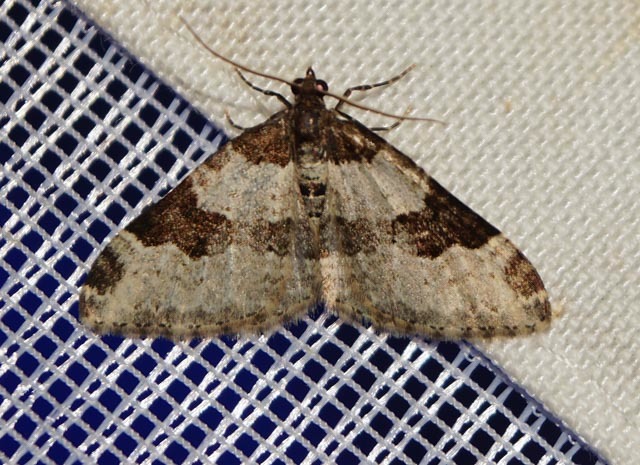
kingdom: Animalia
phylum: Arthropoda
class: Insecta
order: Lepidoptera
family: Geometridae
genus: Xanthorhoe
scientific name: Xanthorhoe fluctuata
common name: Garden carpet
